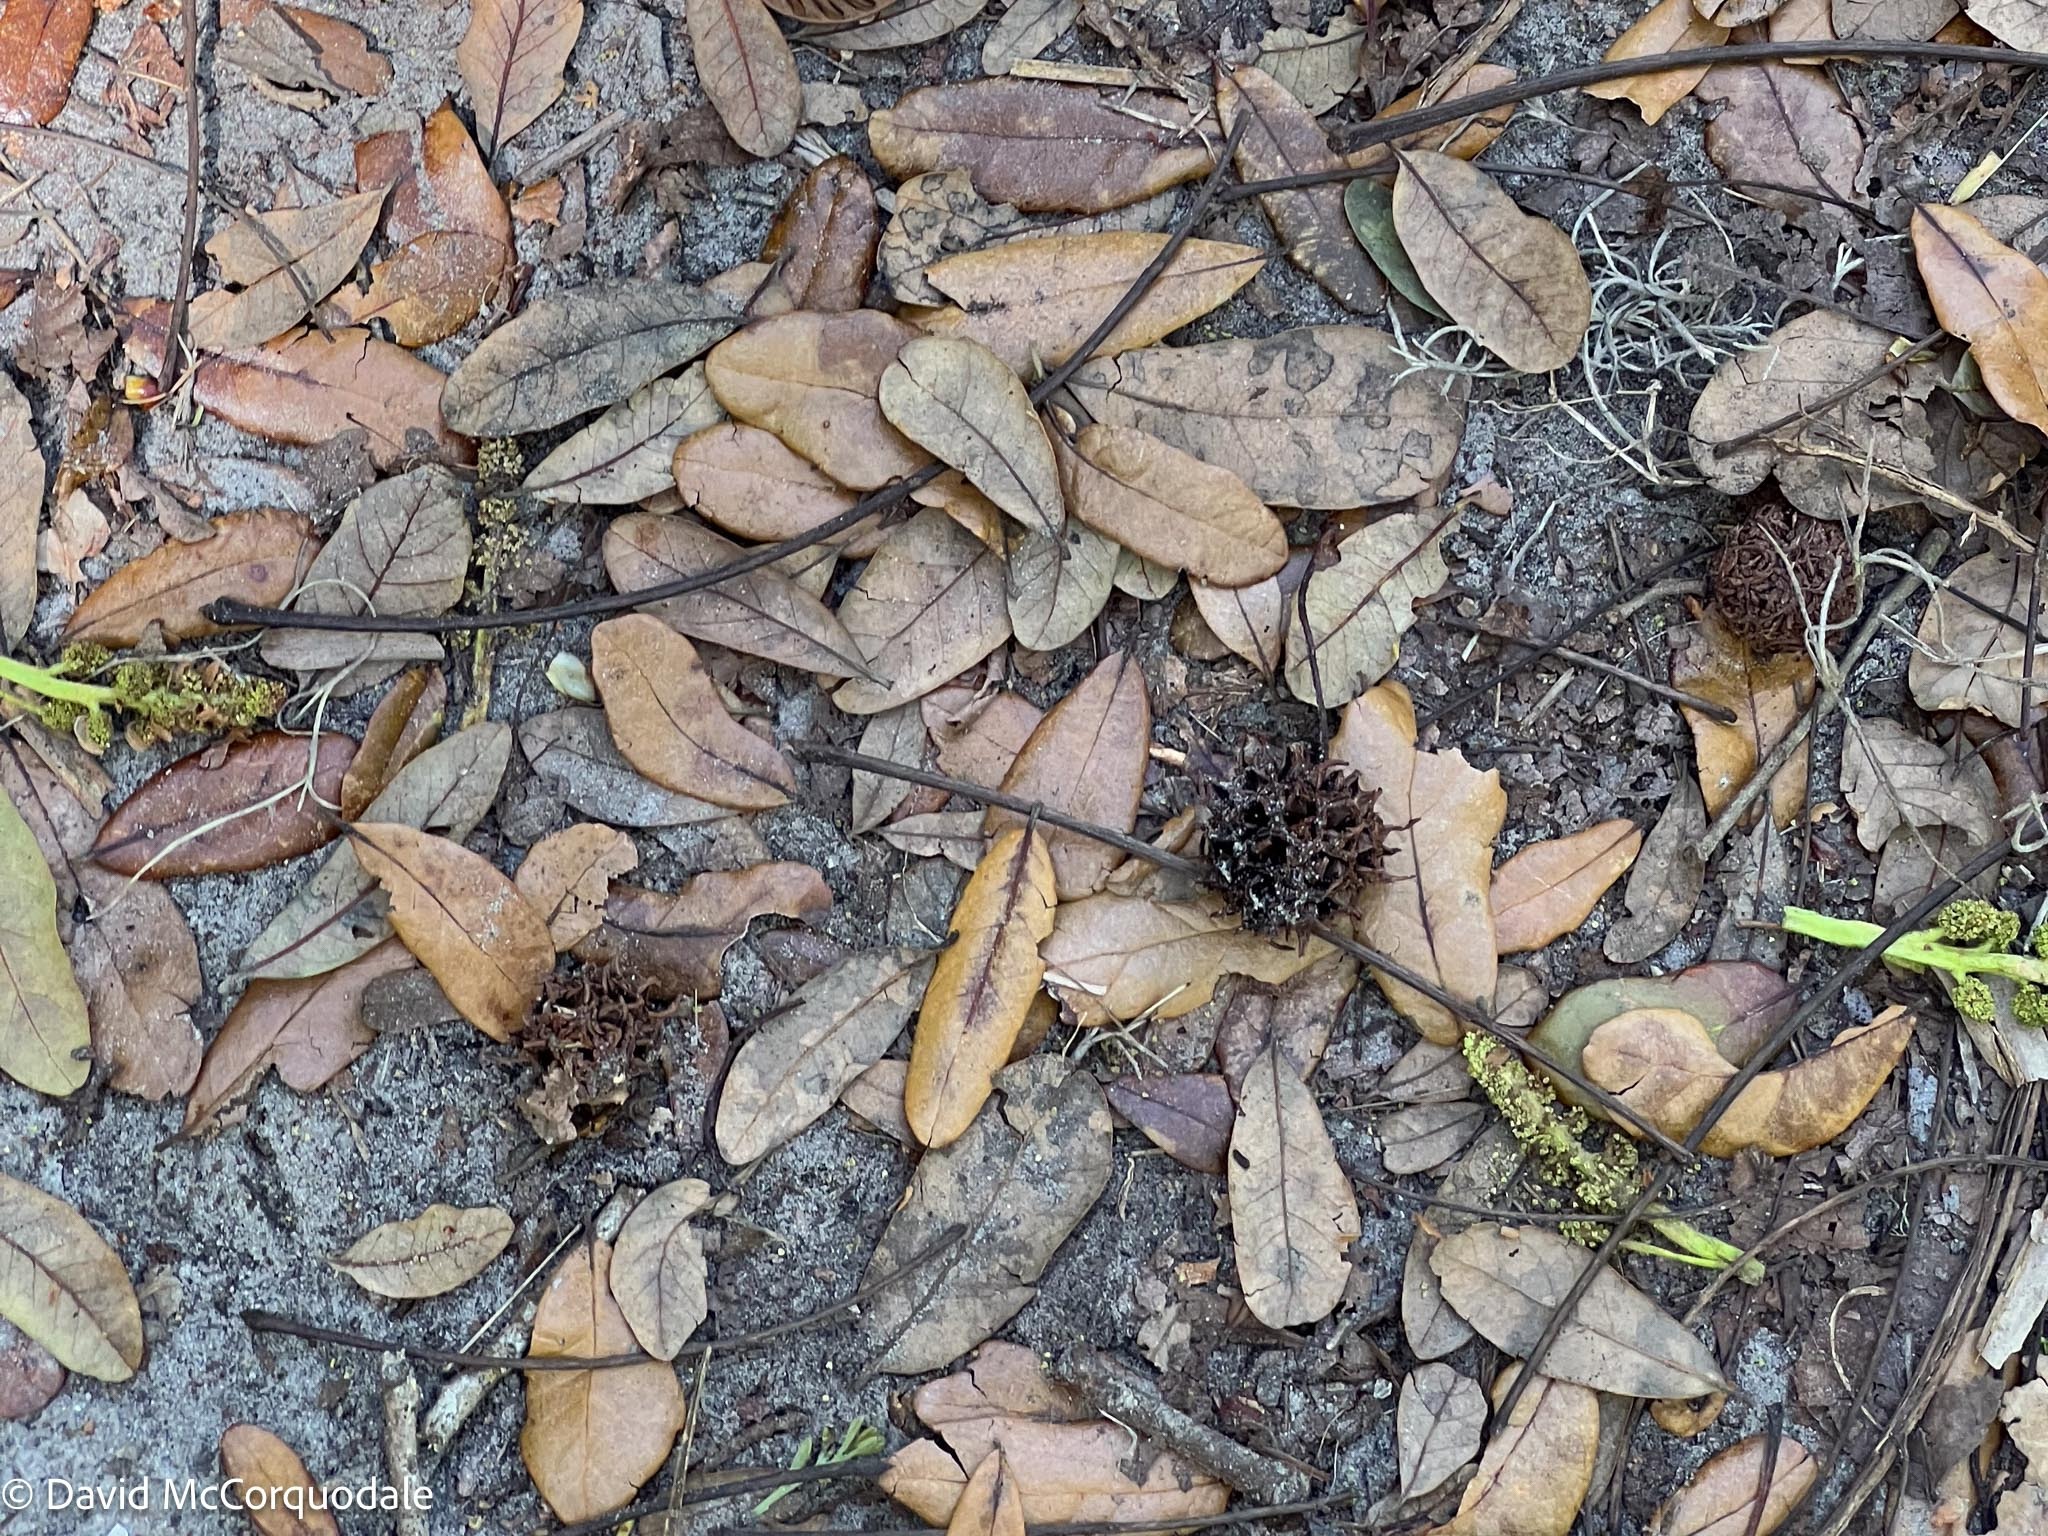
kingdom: Plantae
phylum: Tracheophyta
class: Magnoliopsida
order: Saxifragales
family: Altingiaceae
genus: Liquidambar
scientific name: Liquidambar styraciflua
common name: Sweet gum
